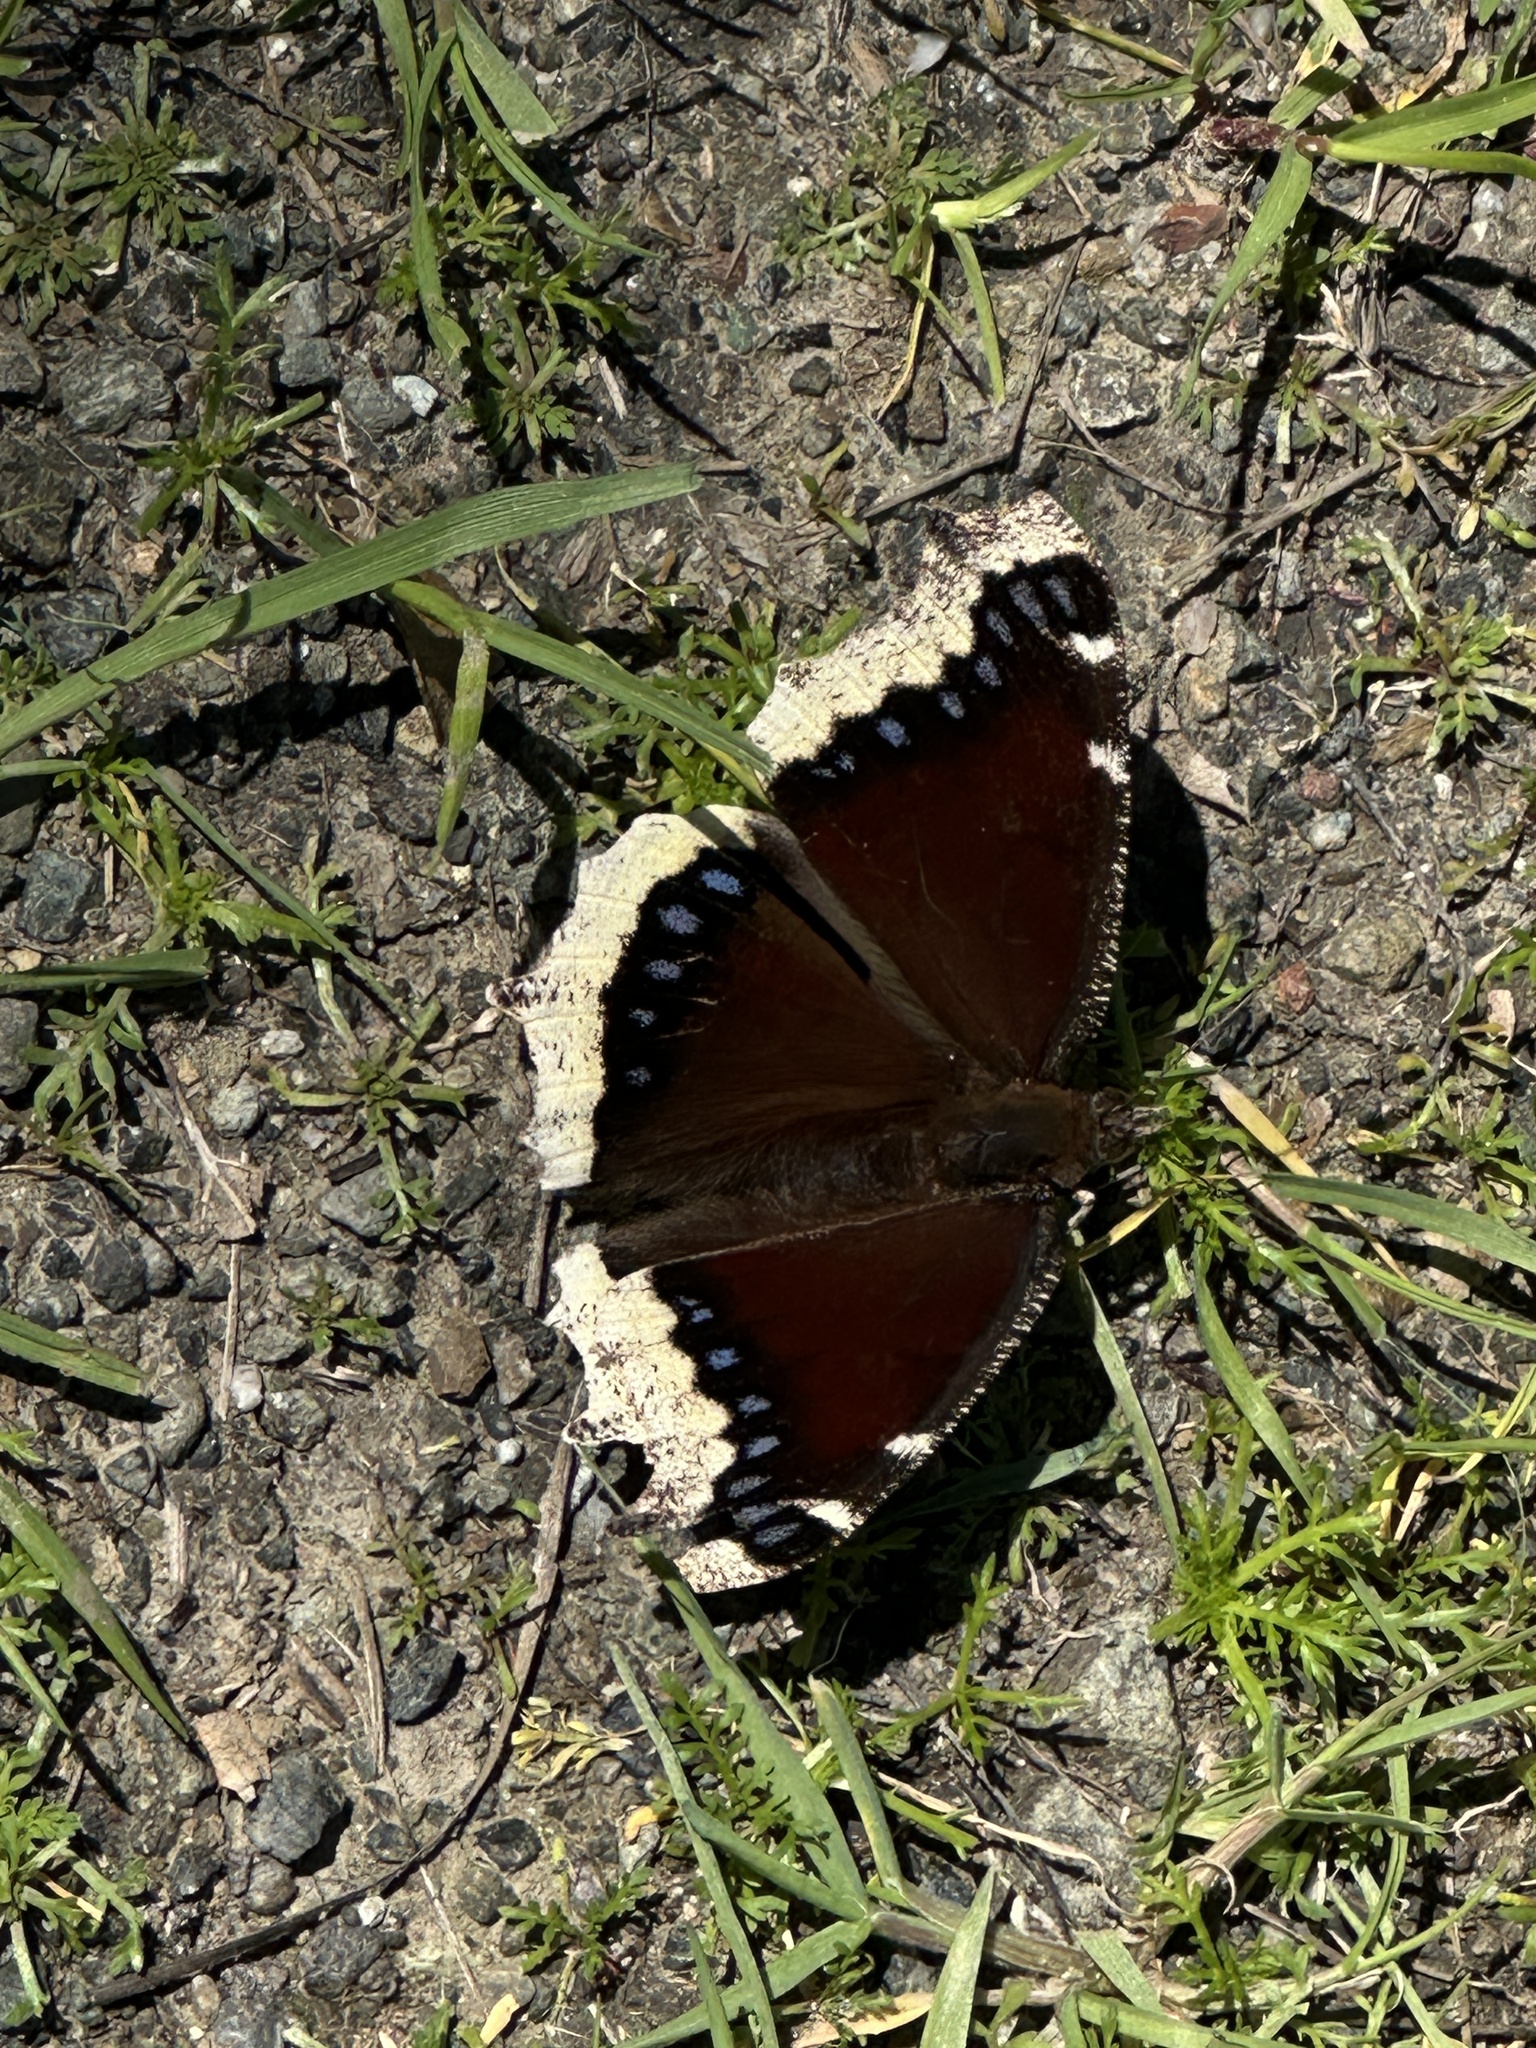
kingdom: Animalia
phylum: Arthropoda
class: Insecta
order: Lepidoptera
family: Nymphalidae
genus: Nymphalis
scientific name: Nymphalis antiopa
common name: Camberwell beauty
